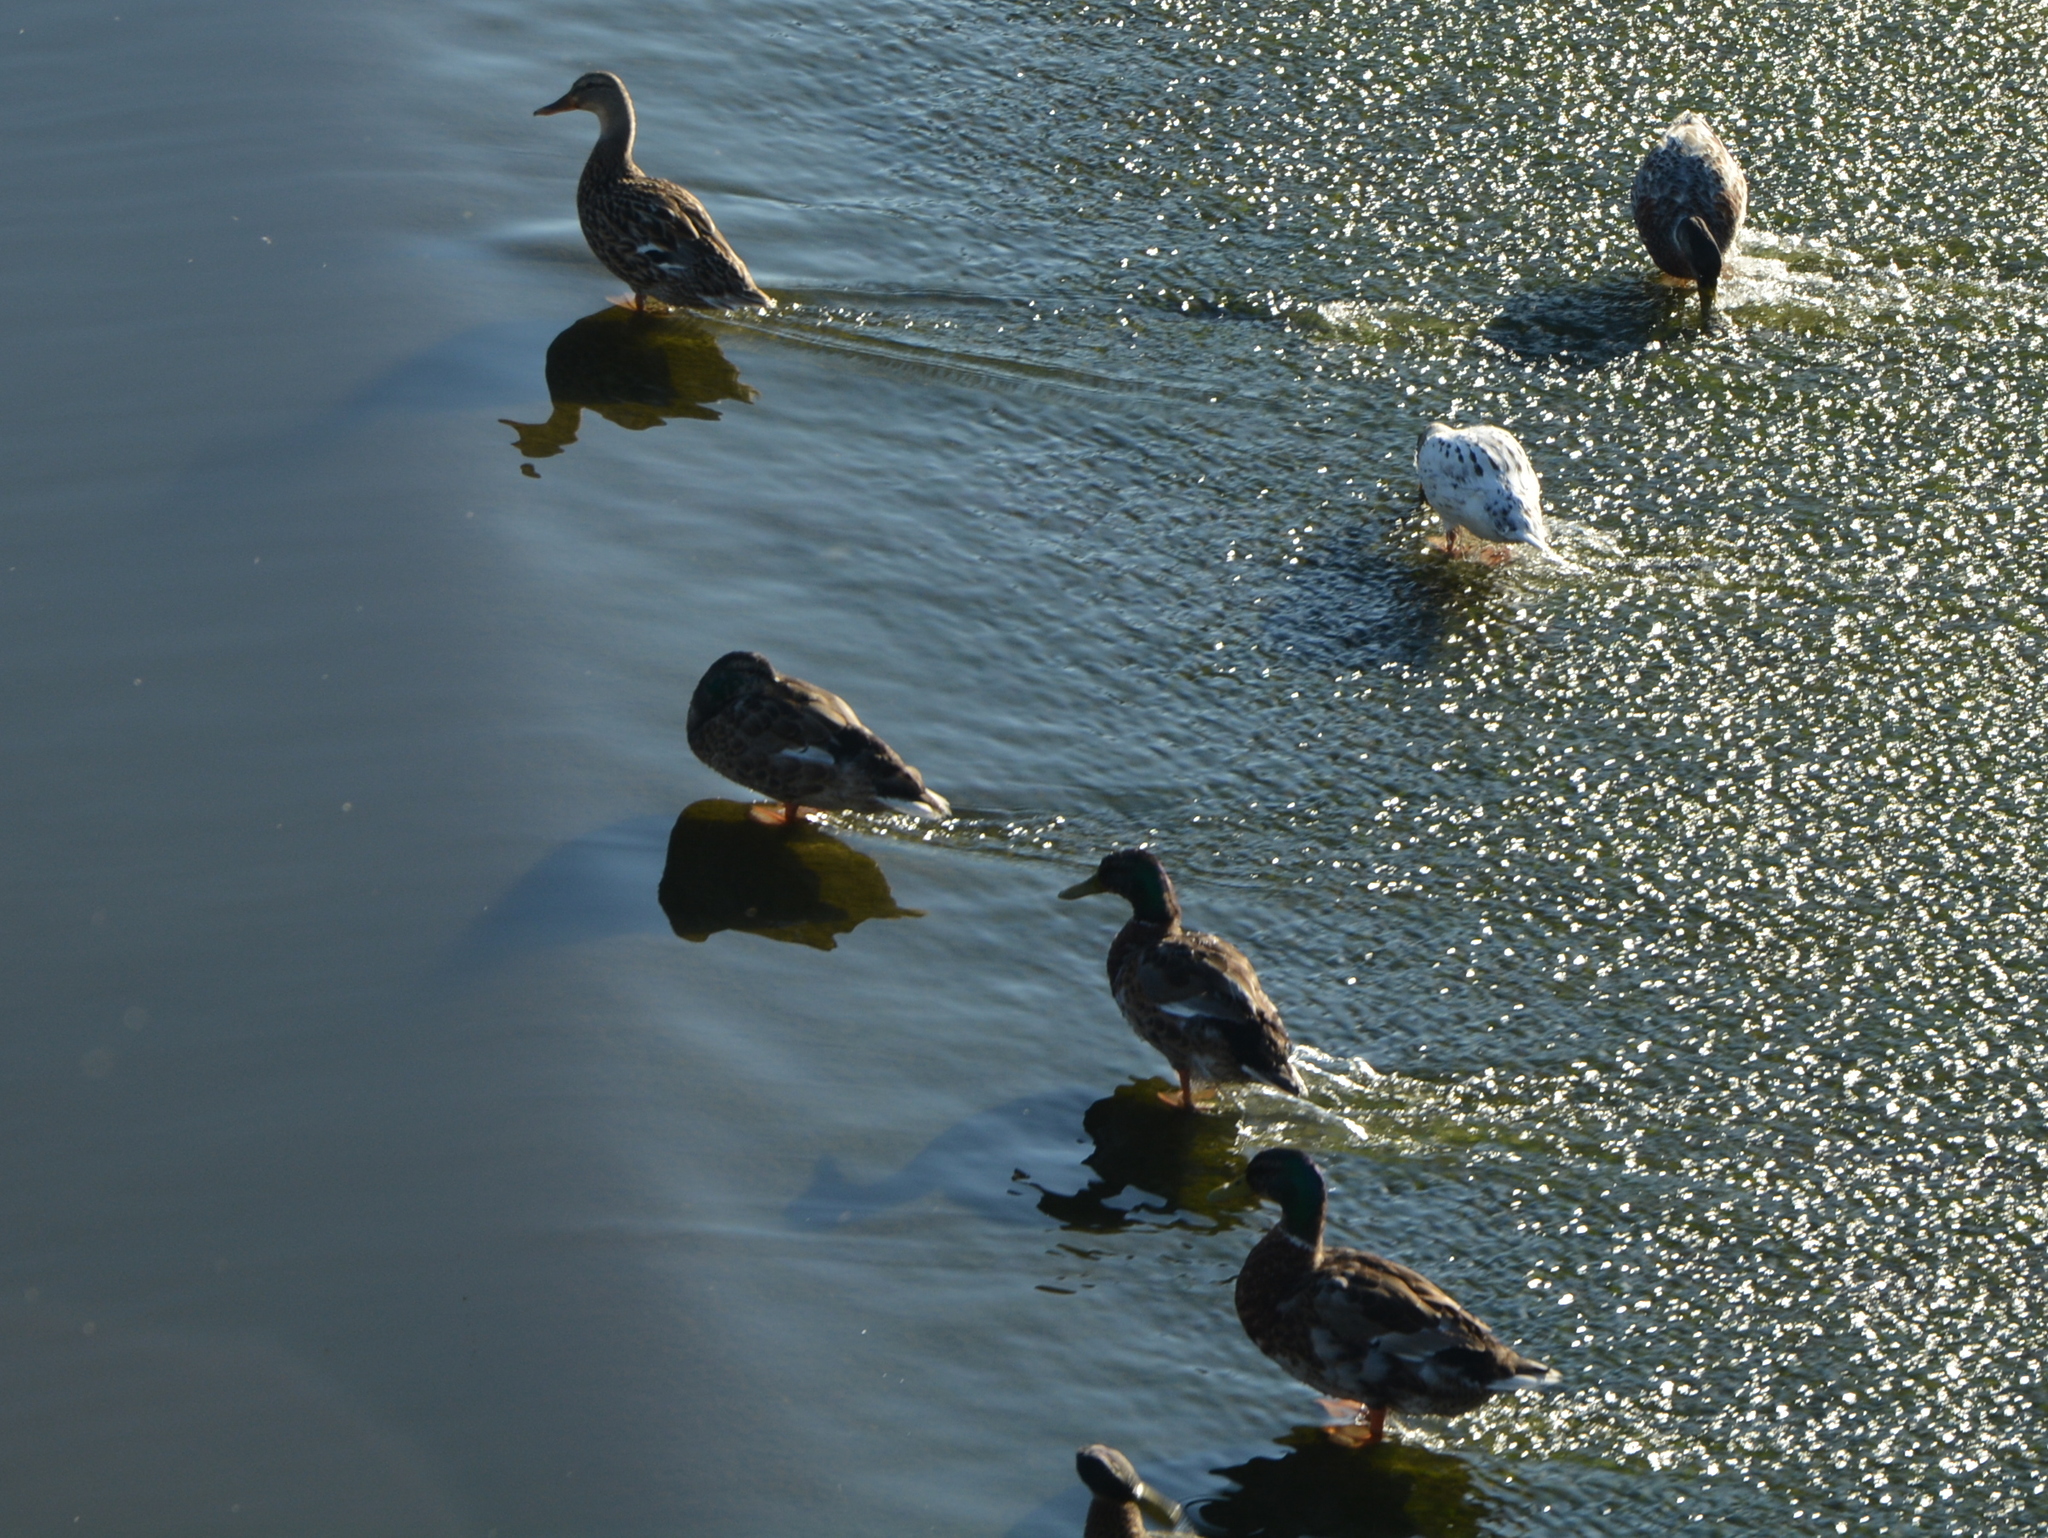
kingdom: Animalia
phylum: Chordata
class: Aves
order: Anseriformes
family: Anatidae
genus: Anas
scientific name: Anas platyrhynchos
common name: Mallard
